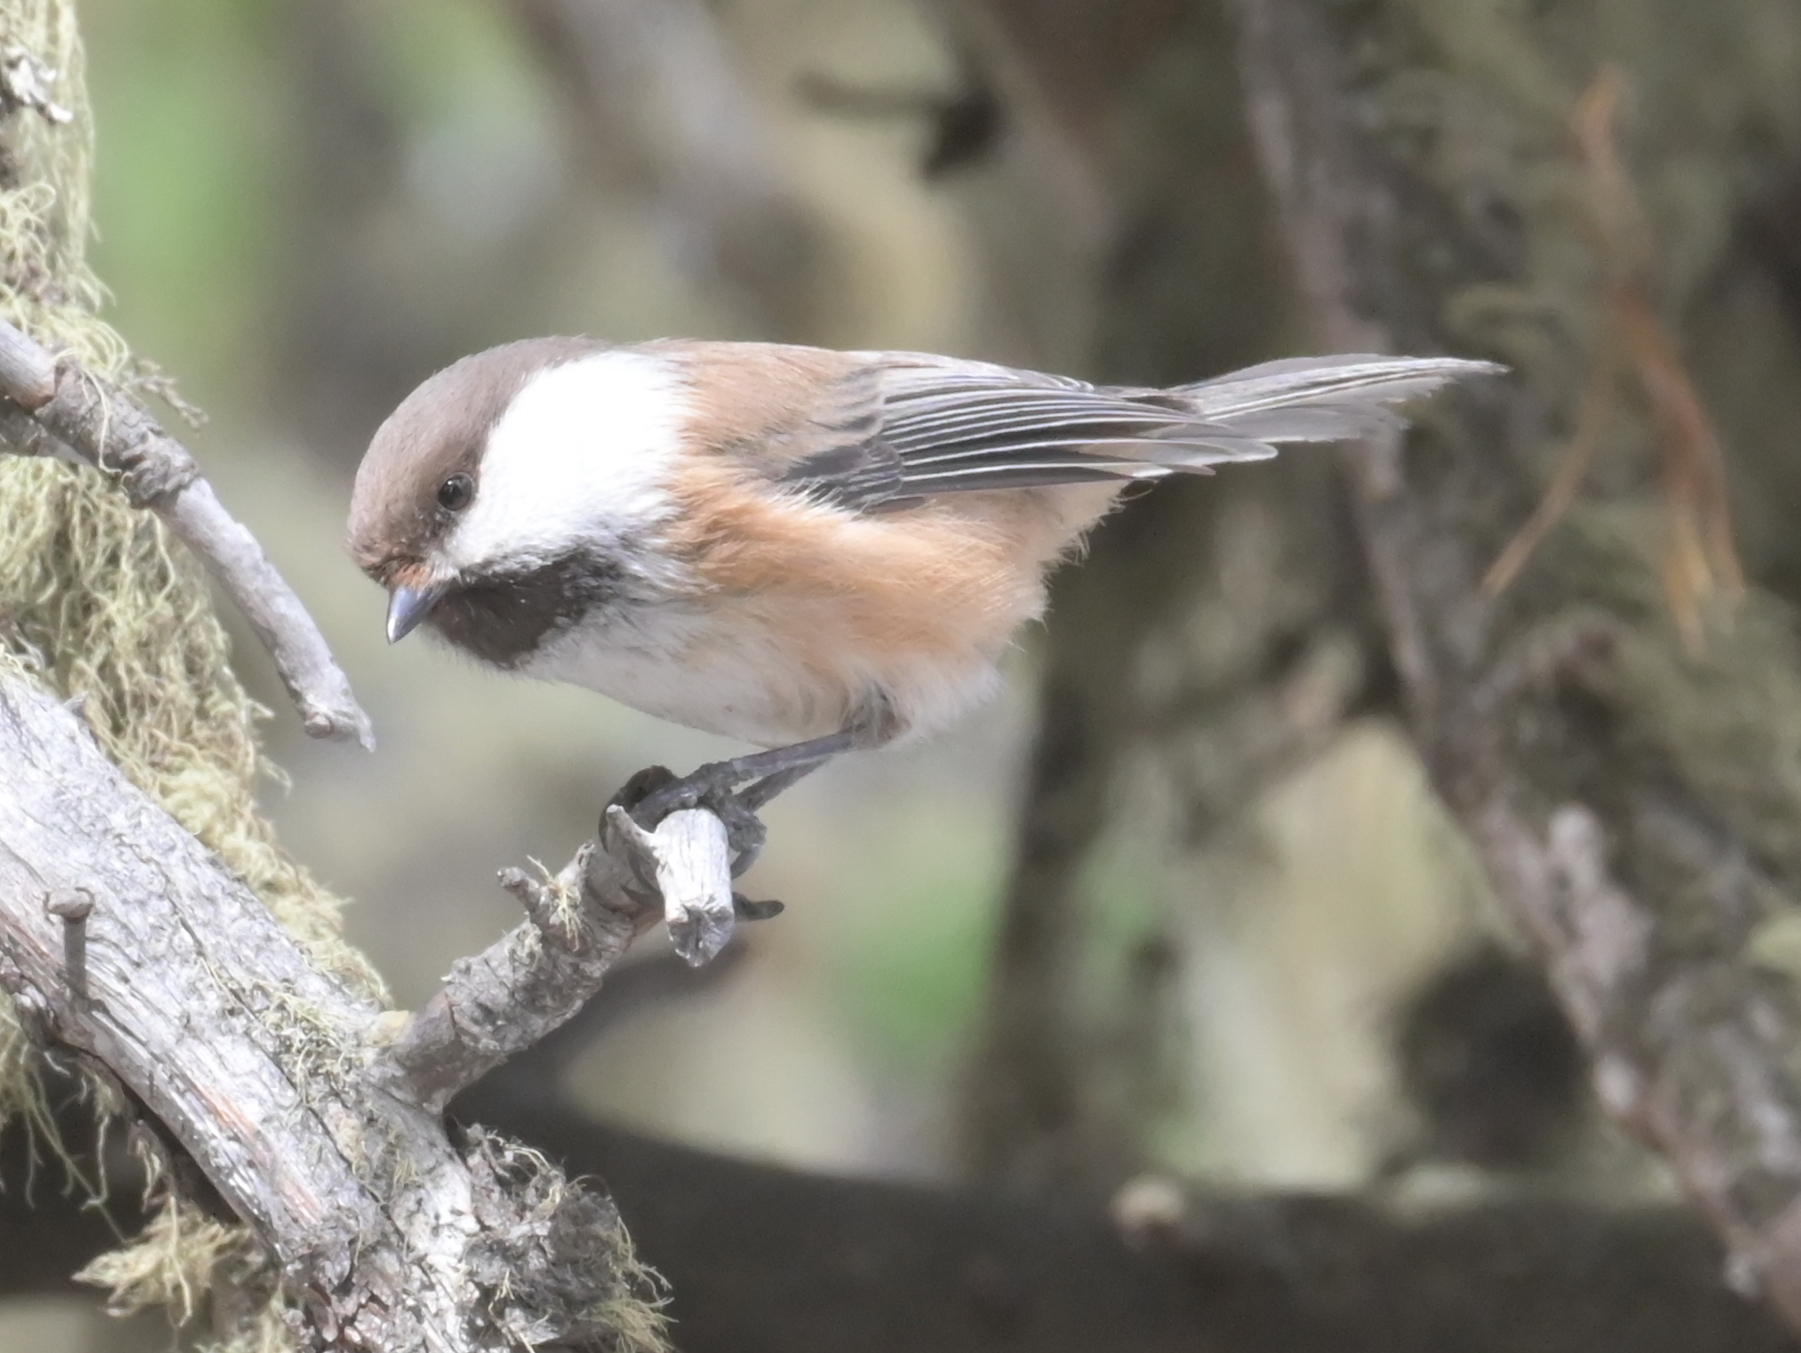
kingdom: Animalia
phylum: Chordata
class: Aves
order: Passeriformes
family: Paridae
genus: Poecile
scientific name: Poecile cinctus
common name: Gray-headed chickadee
